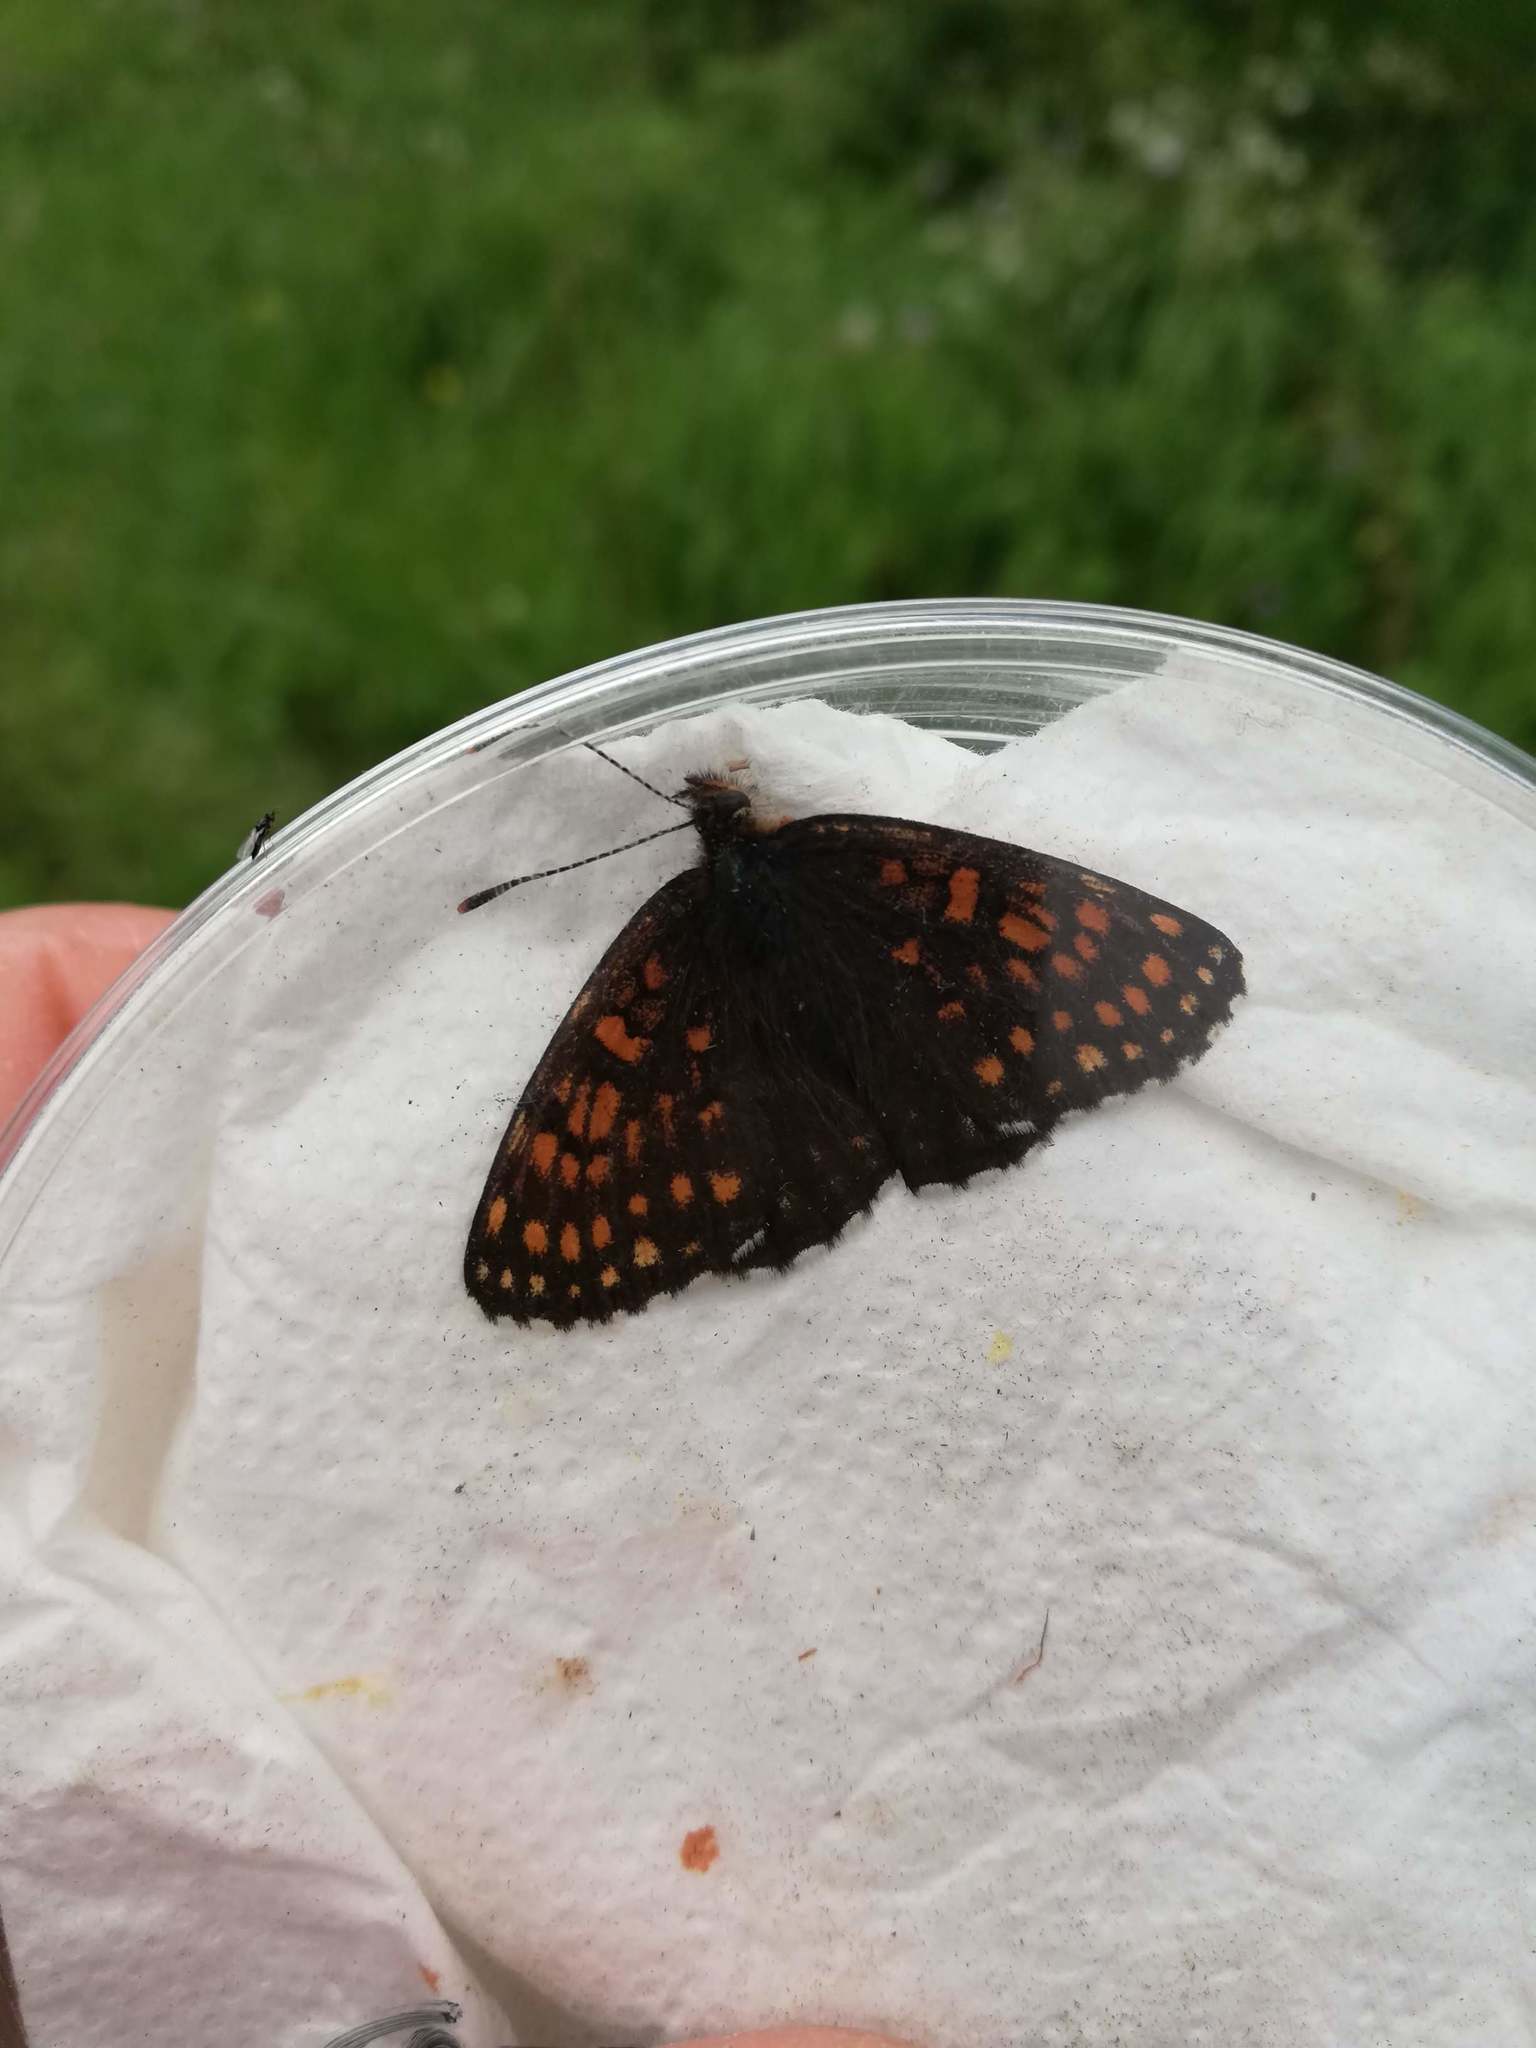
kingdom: Animalia
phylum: Arthropoda
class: Insecta
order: Lepidoptera
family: Nymphalidae
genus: Melitaea
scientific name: Melitaea diamina
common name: False heath fritillary
